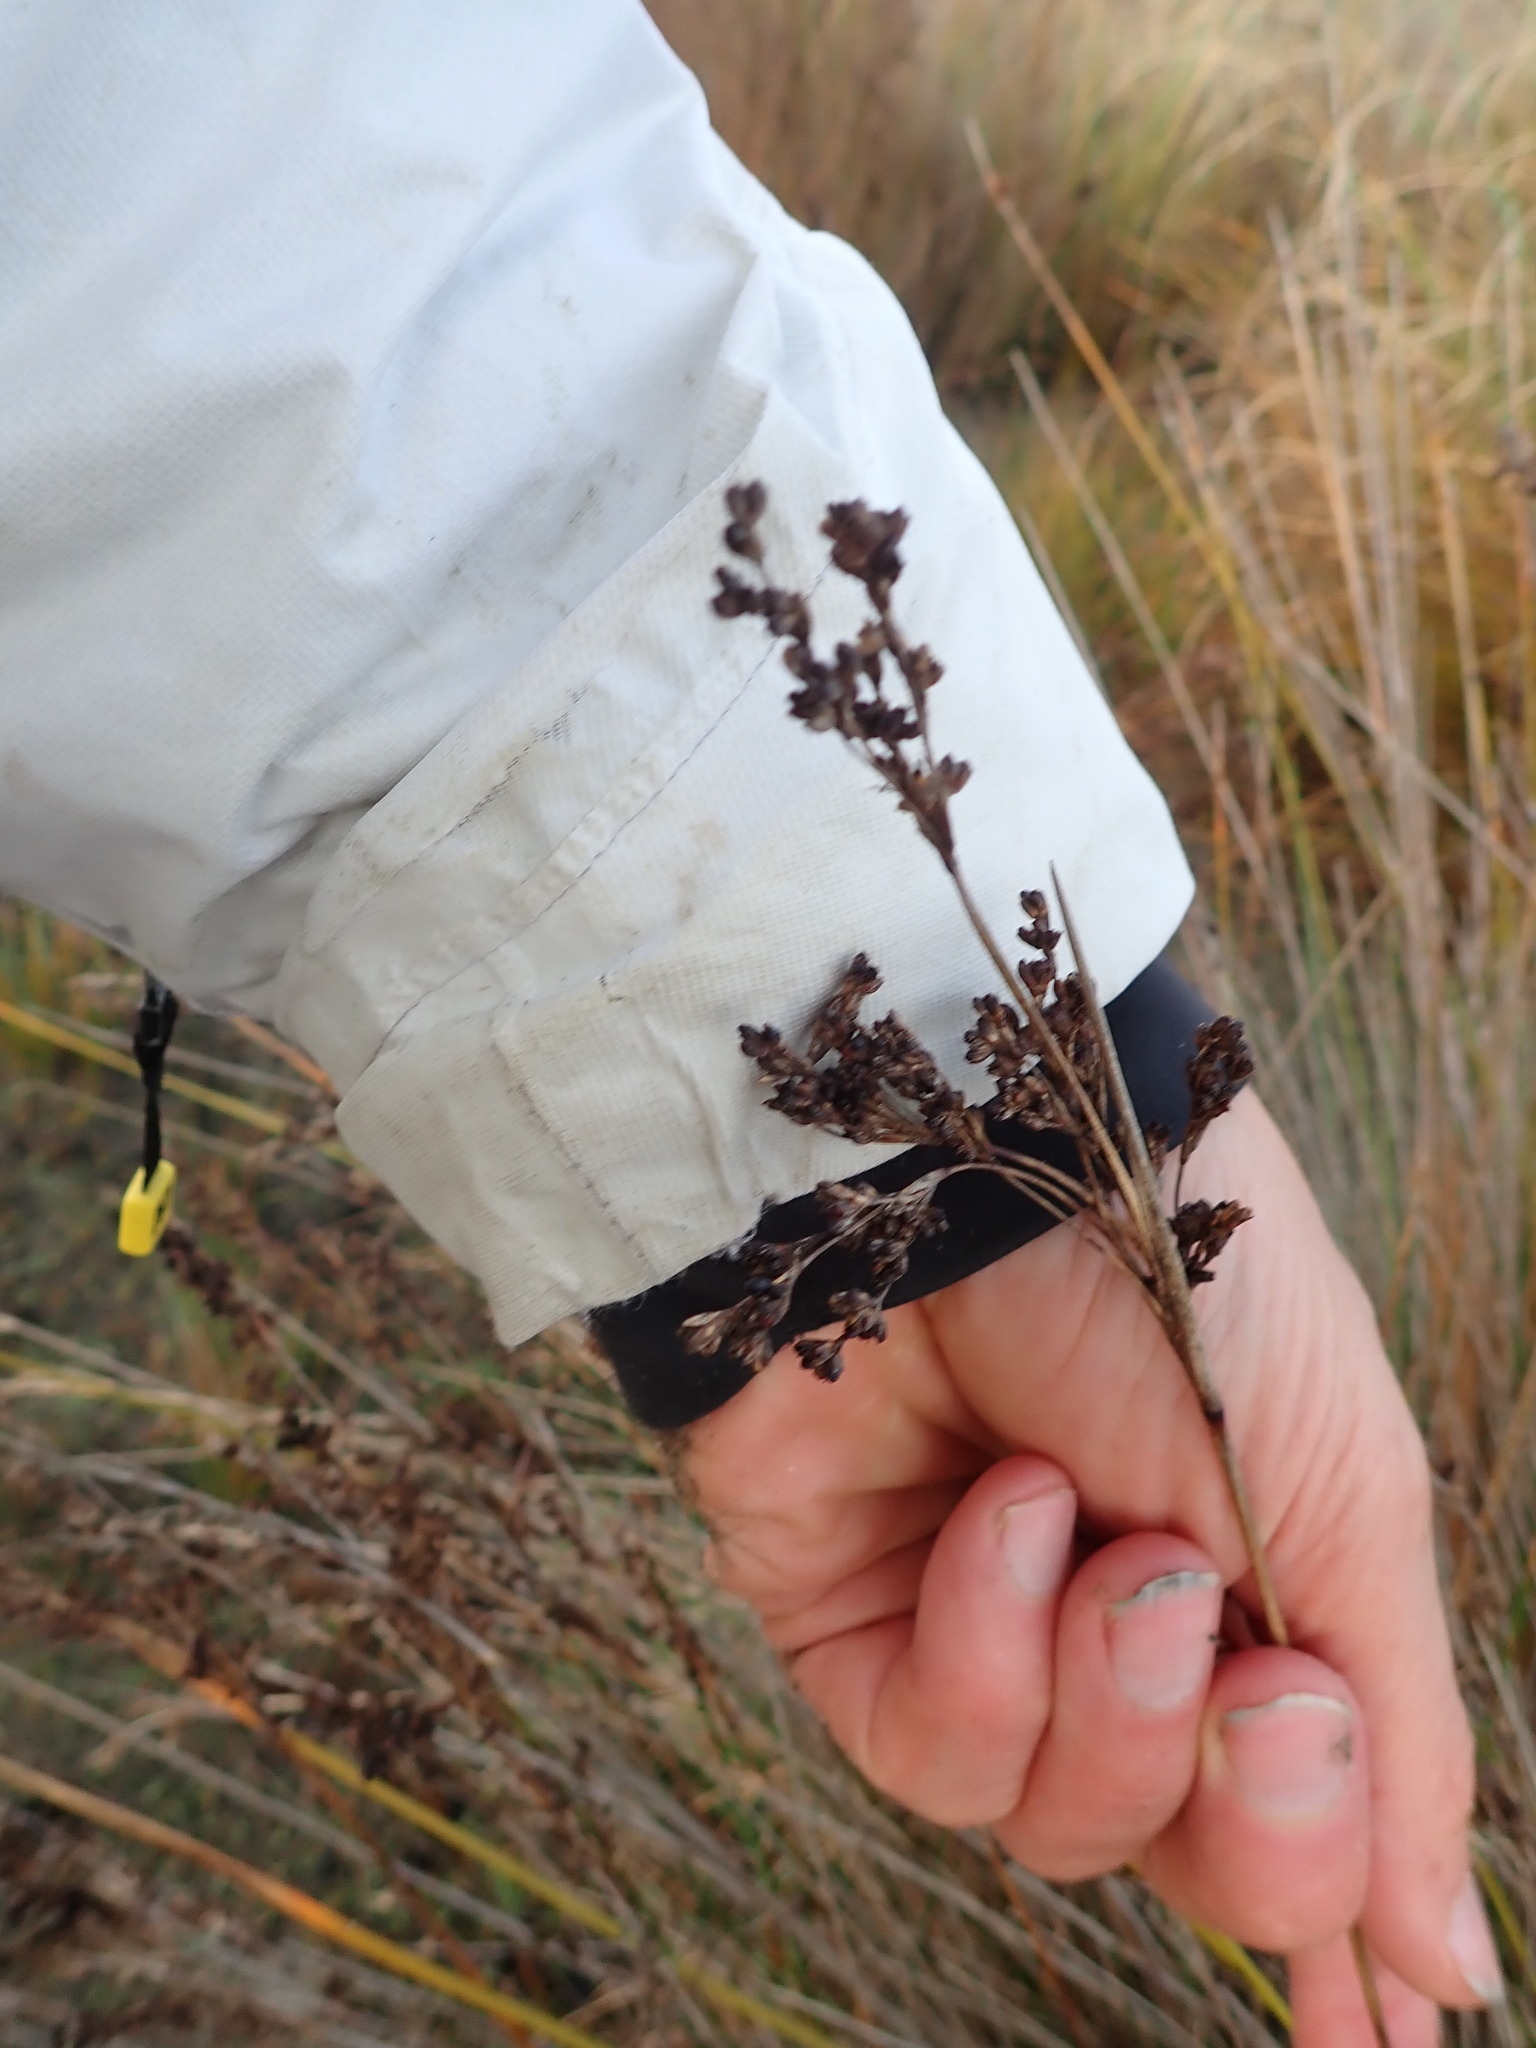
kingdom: Plantae
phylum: Tracheophyta
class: Liliopsida
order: Poales
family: Juncaceae
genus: Juncus
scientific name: Juncus kraussii
